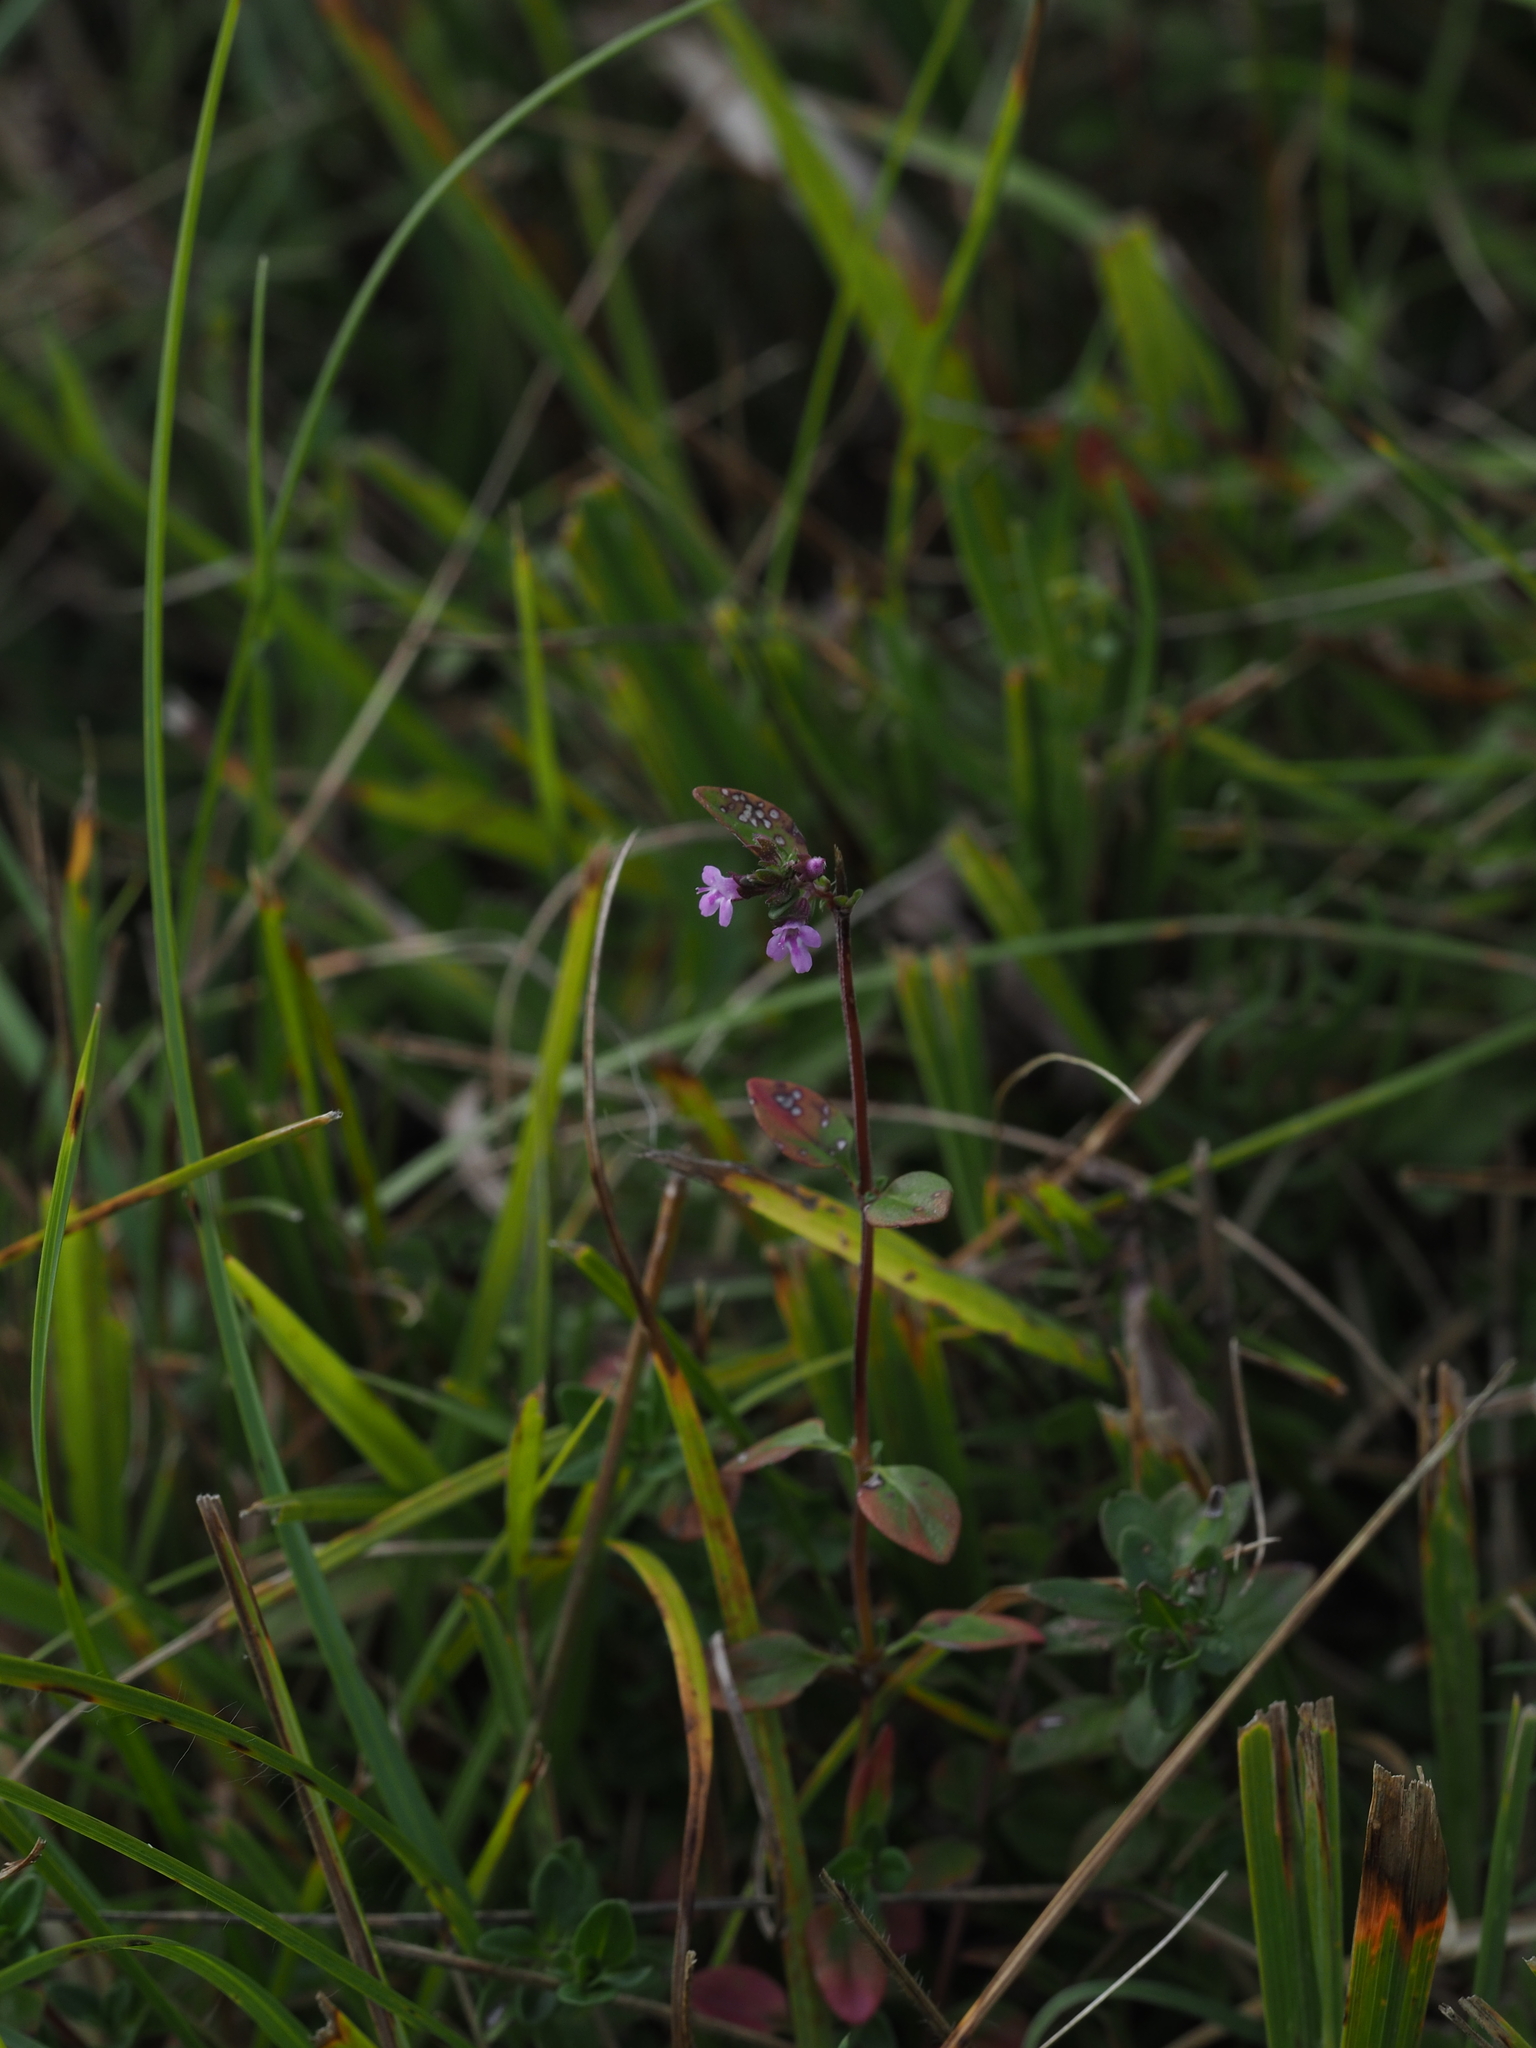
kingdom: Plantae
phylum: Tracheophyta
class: Magnoliopsida
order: Lamiales
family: Lamiaceae
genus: Origanum
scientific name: Origanum vulgare
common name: Wild marjoram
